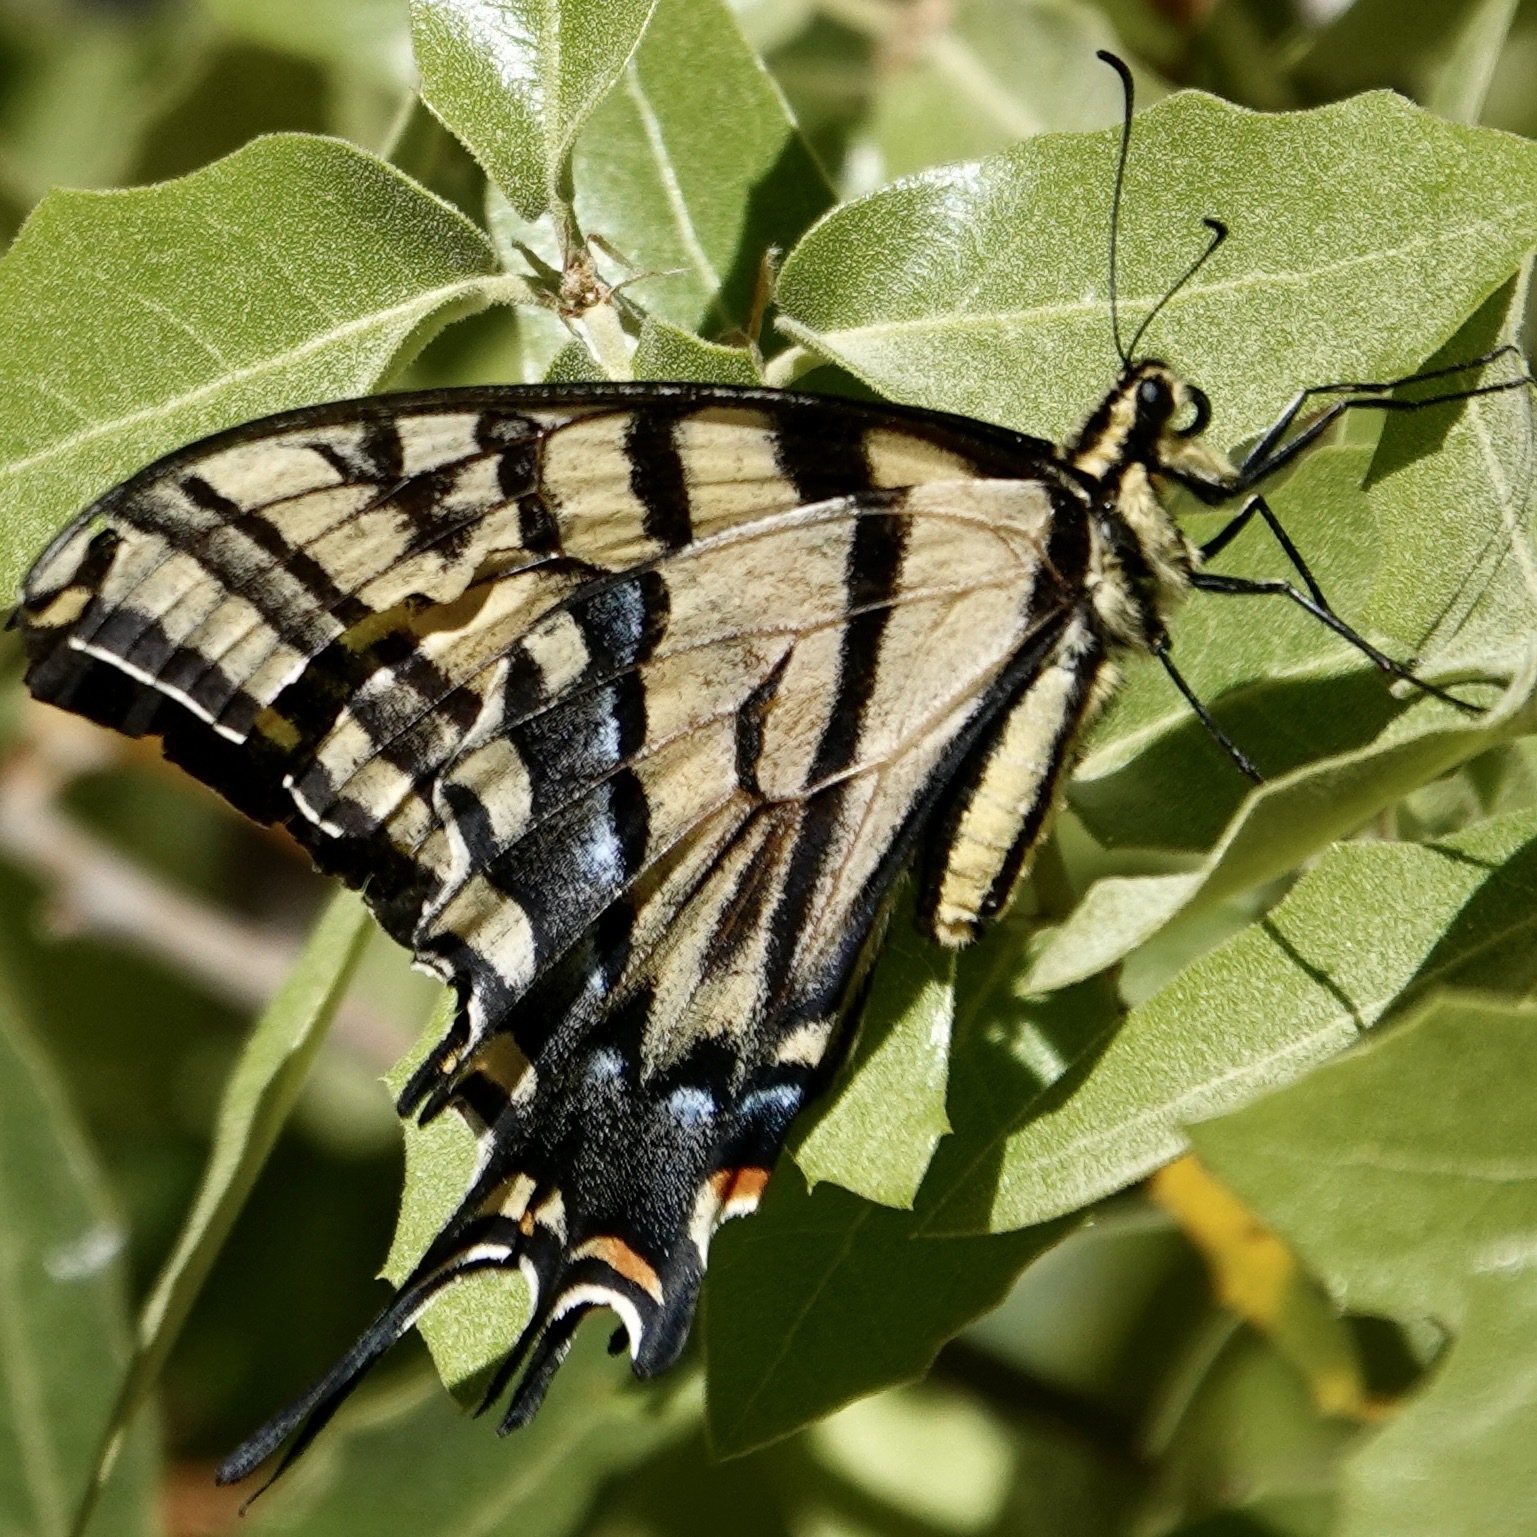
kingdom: Animalia
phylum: Arthropoda
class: Insecta
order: Lepidoptera
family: Papilionidae
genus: Papilio
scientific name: Papilio multicaudata
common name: Two-tailed tiger swallowtail
